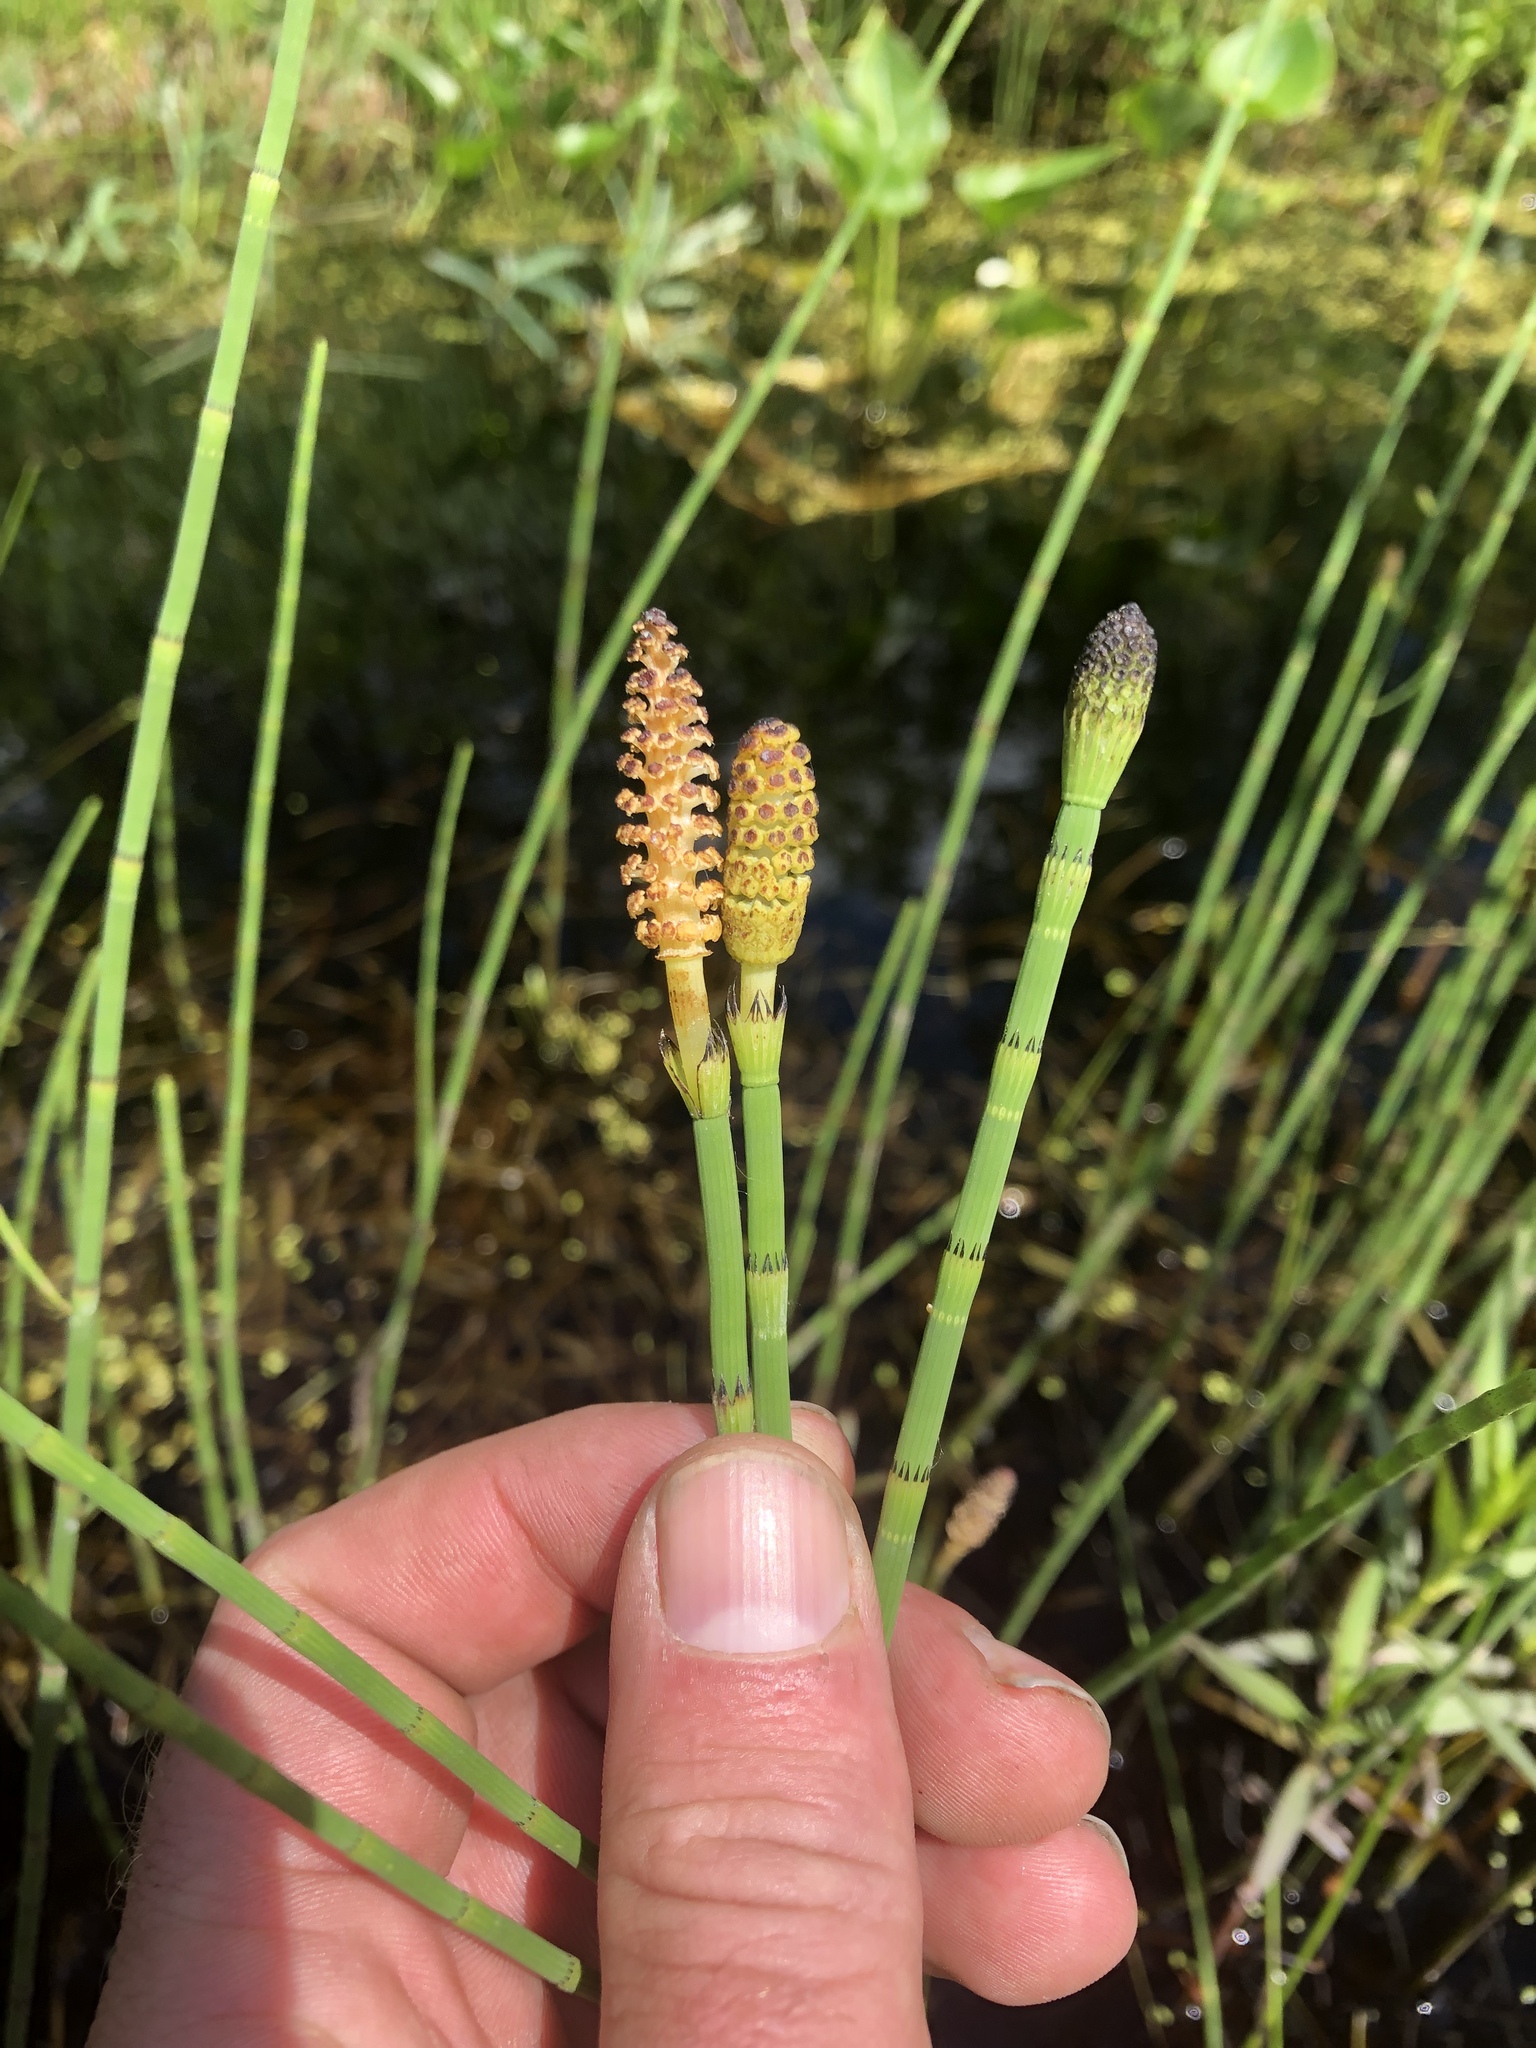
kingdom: Plantae
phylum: Tracheophyta
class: Polypodiopsida
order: Equisetales
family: Equisetaceae
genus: Equisetum
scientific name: Equisetum fluviatile
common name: Water horsetail
